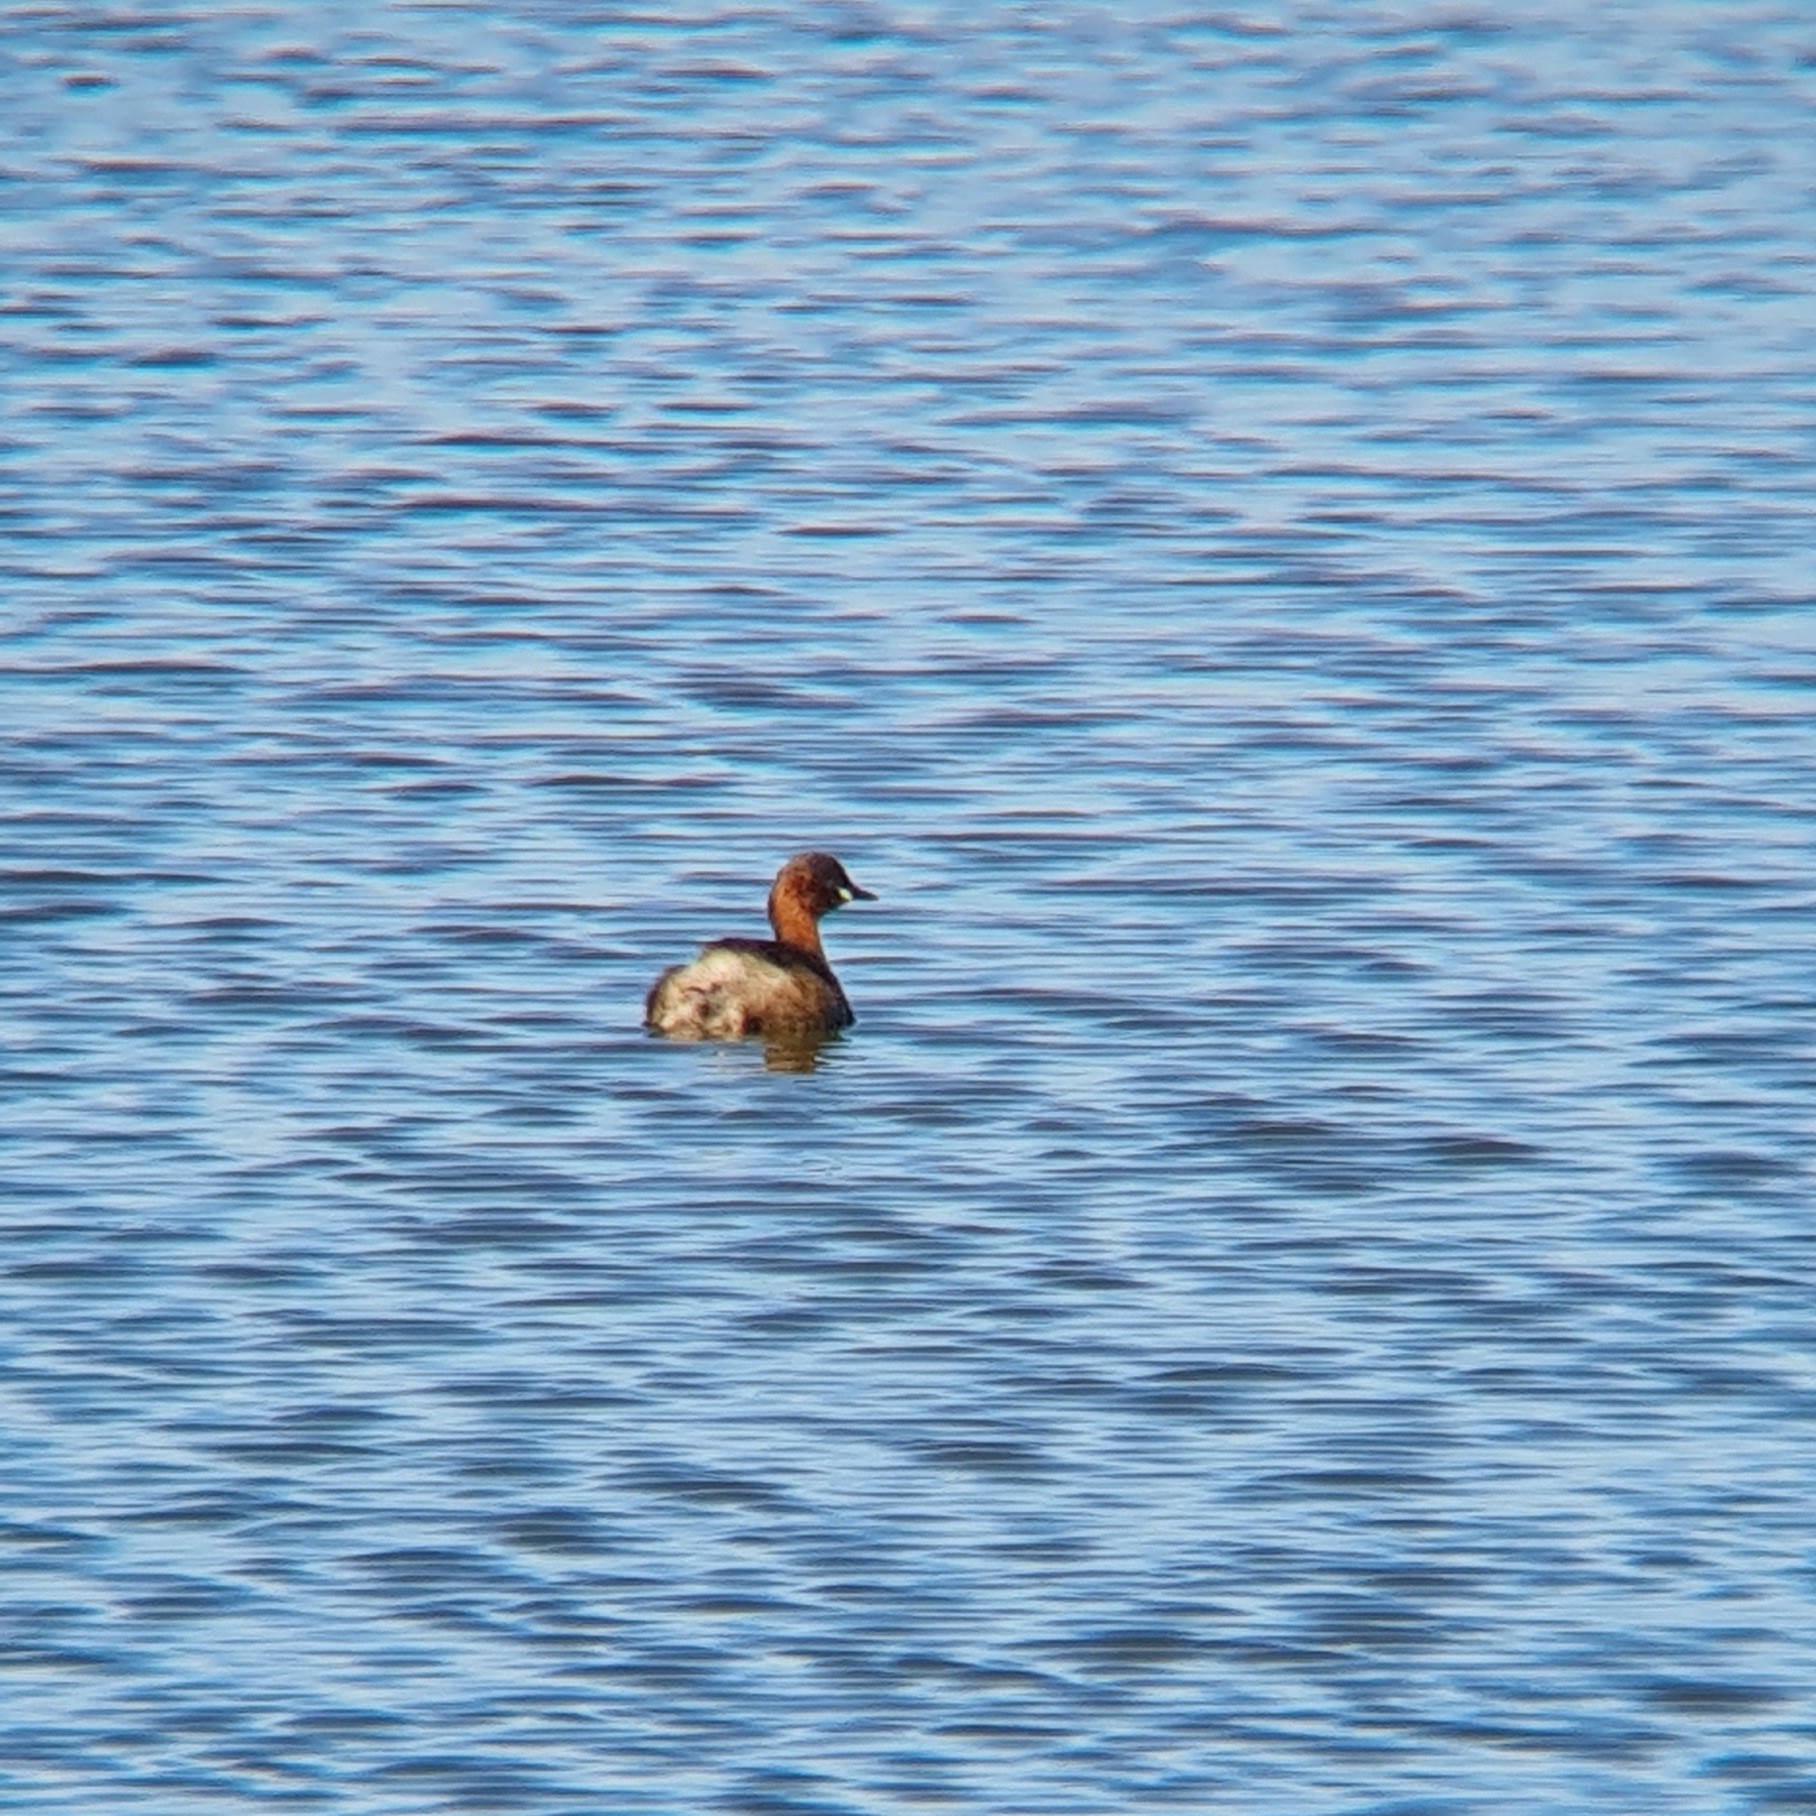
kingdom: Animalia
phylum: Chordata
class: Aves
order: Podicipediformes
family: Podicipedidae
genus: Tachybaptus
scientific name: Tachybaptus ruficollis
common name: Little grebe
